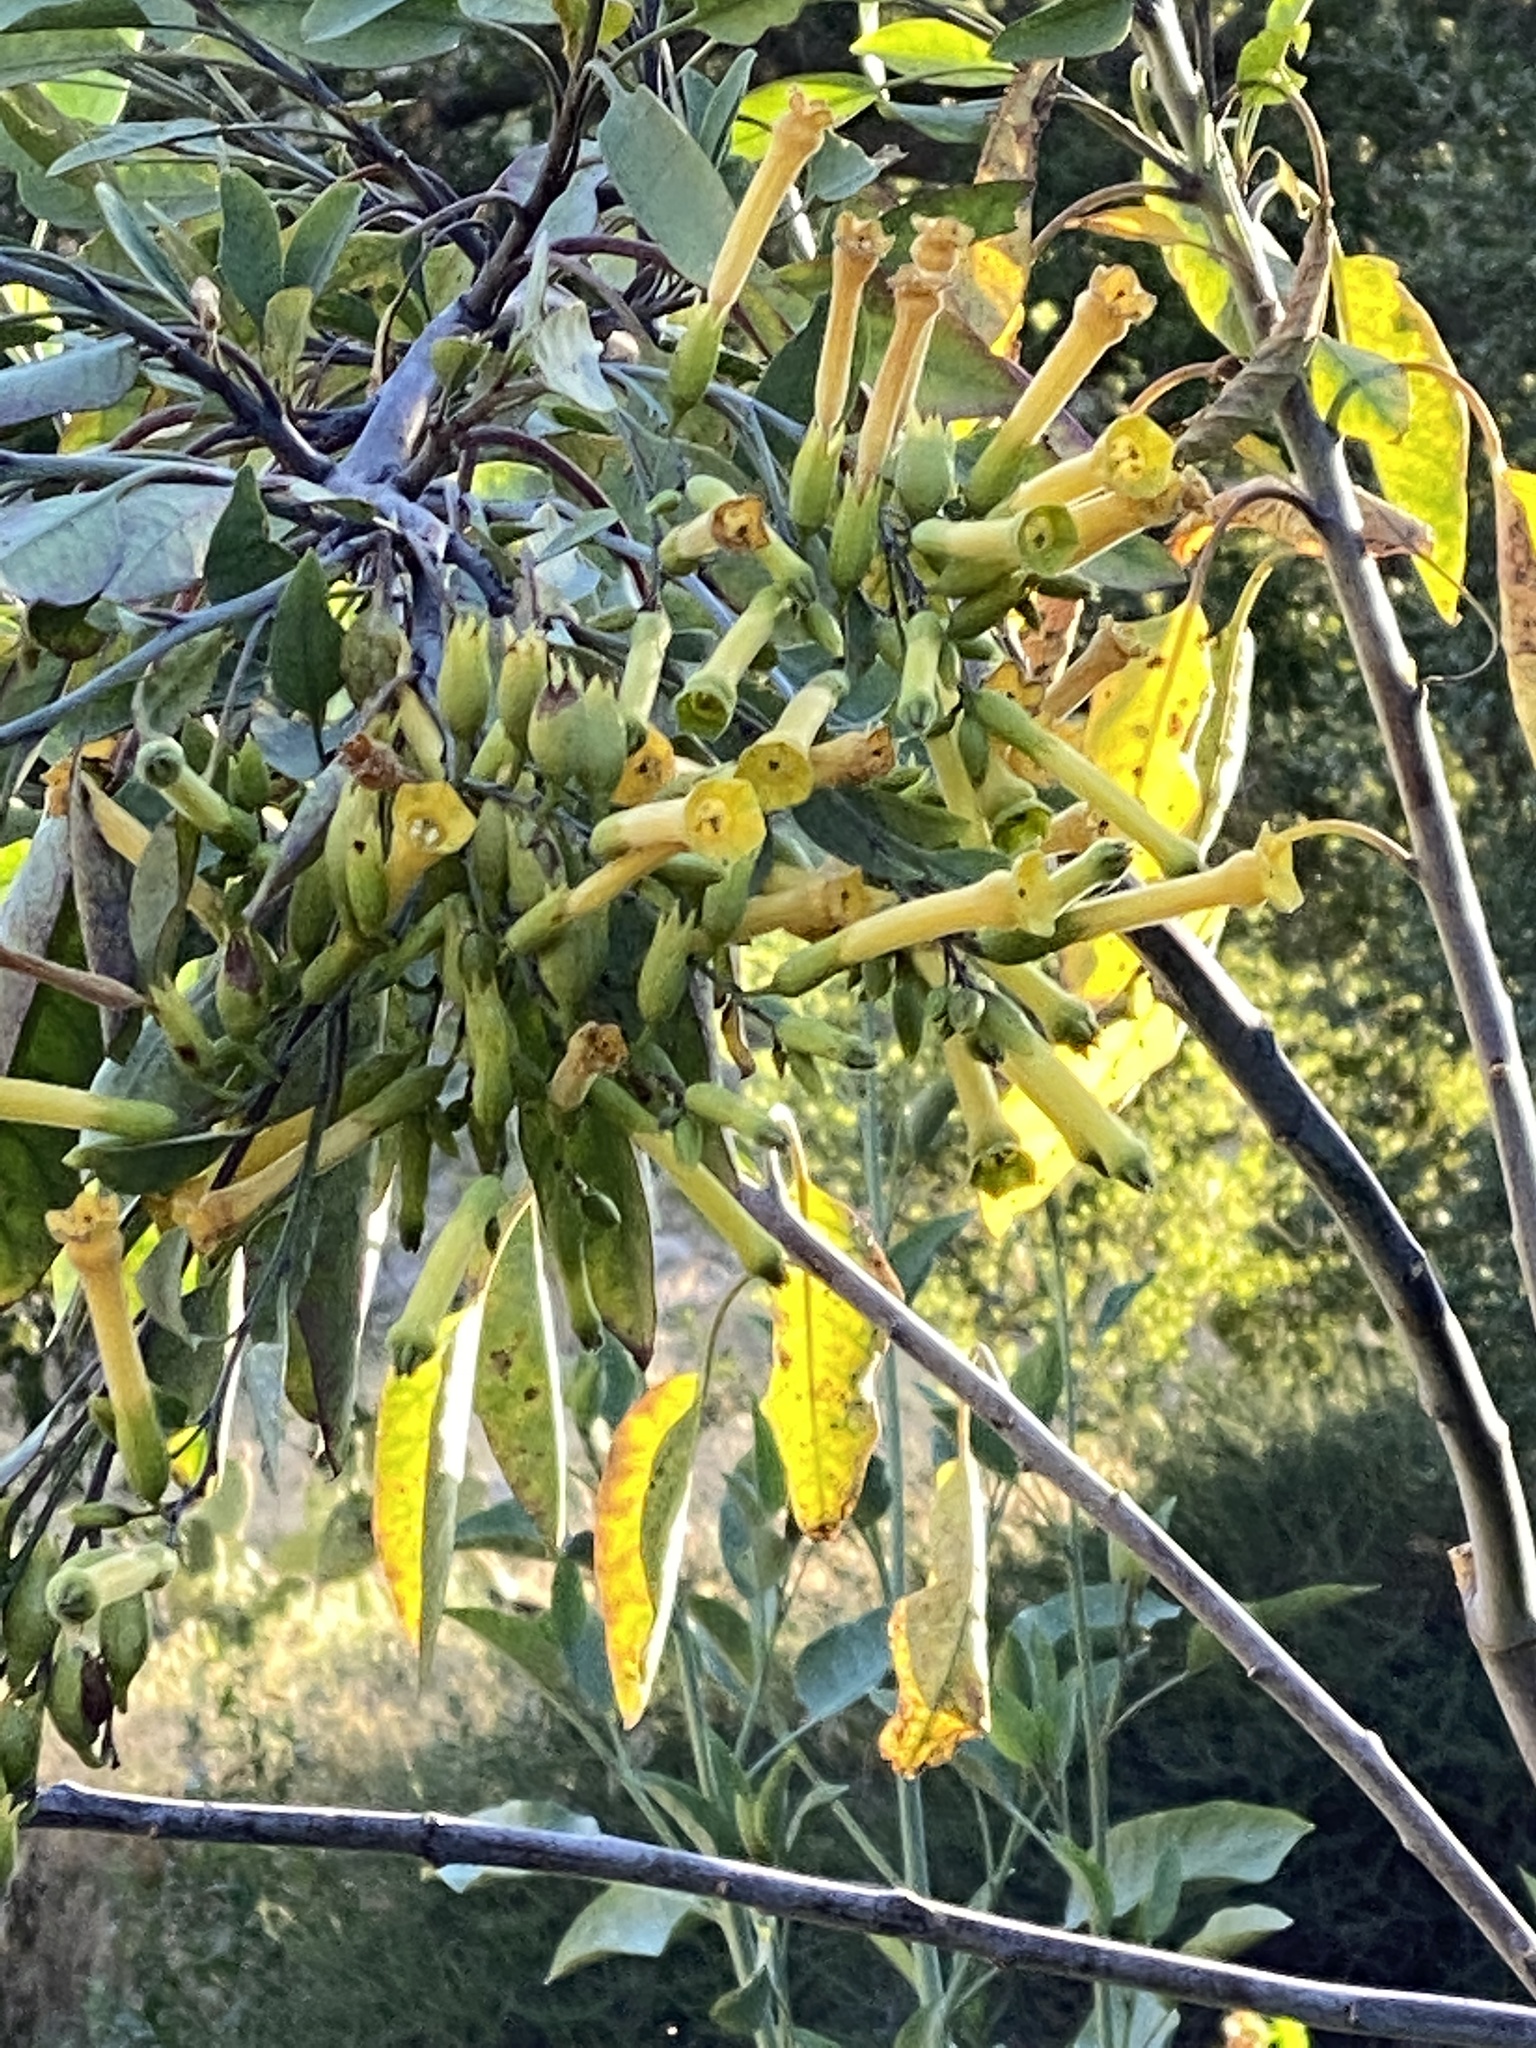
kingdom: Plantae
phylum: Tracheophyta
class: Magnoliopsida
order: Solanales
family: Solanaceae
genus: Nicotiana
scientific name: Nicotiana glauca
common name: Tree tobacco
